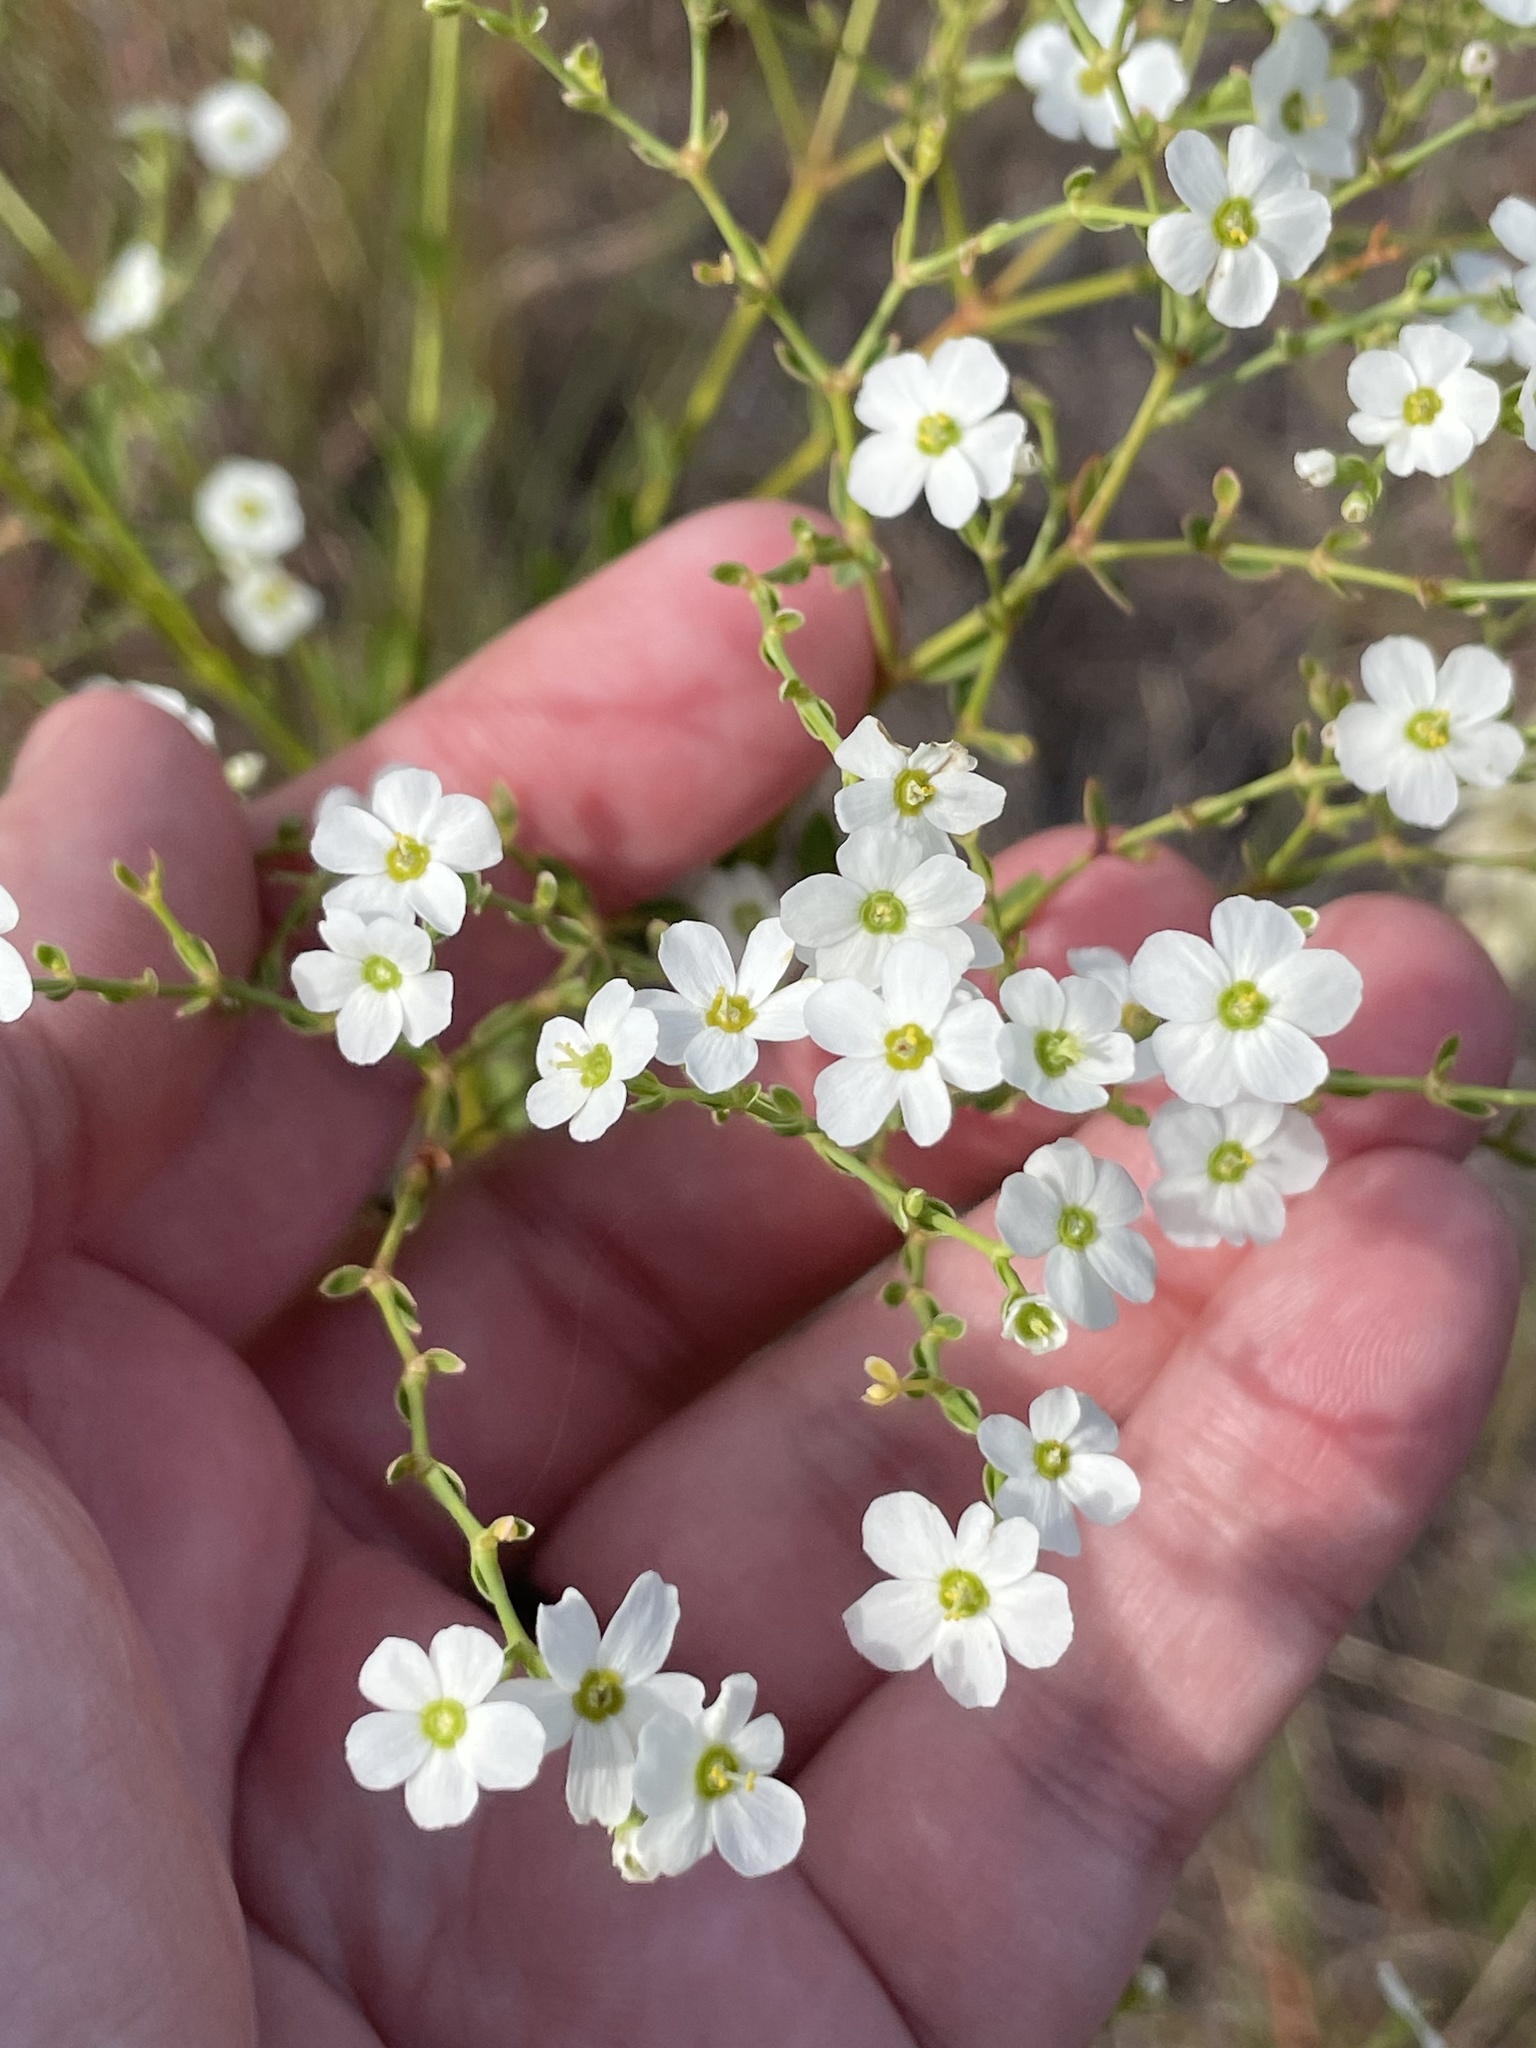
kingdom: Plantae
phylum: Tracheophyta
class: Magnoliopsida
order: Malpighiales
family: Euphorbiaceae
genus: Euphorbia
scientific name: Euphorbia corollata
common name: Flowering spurge
